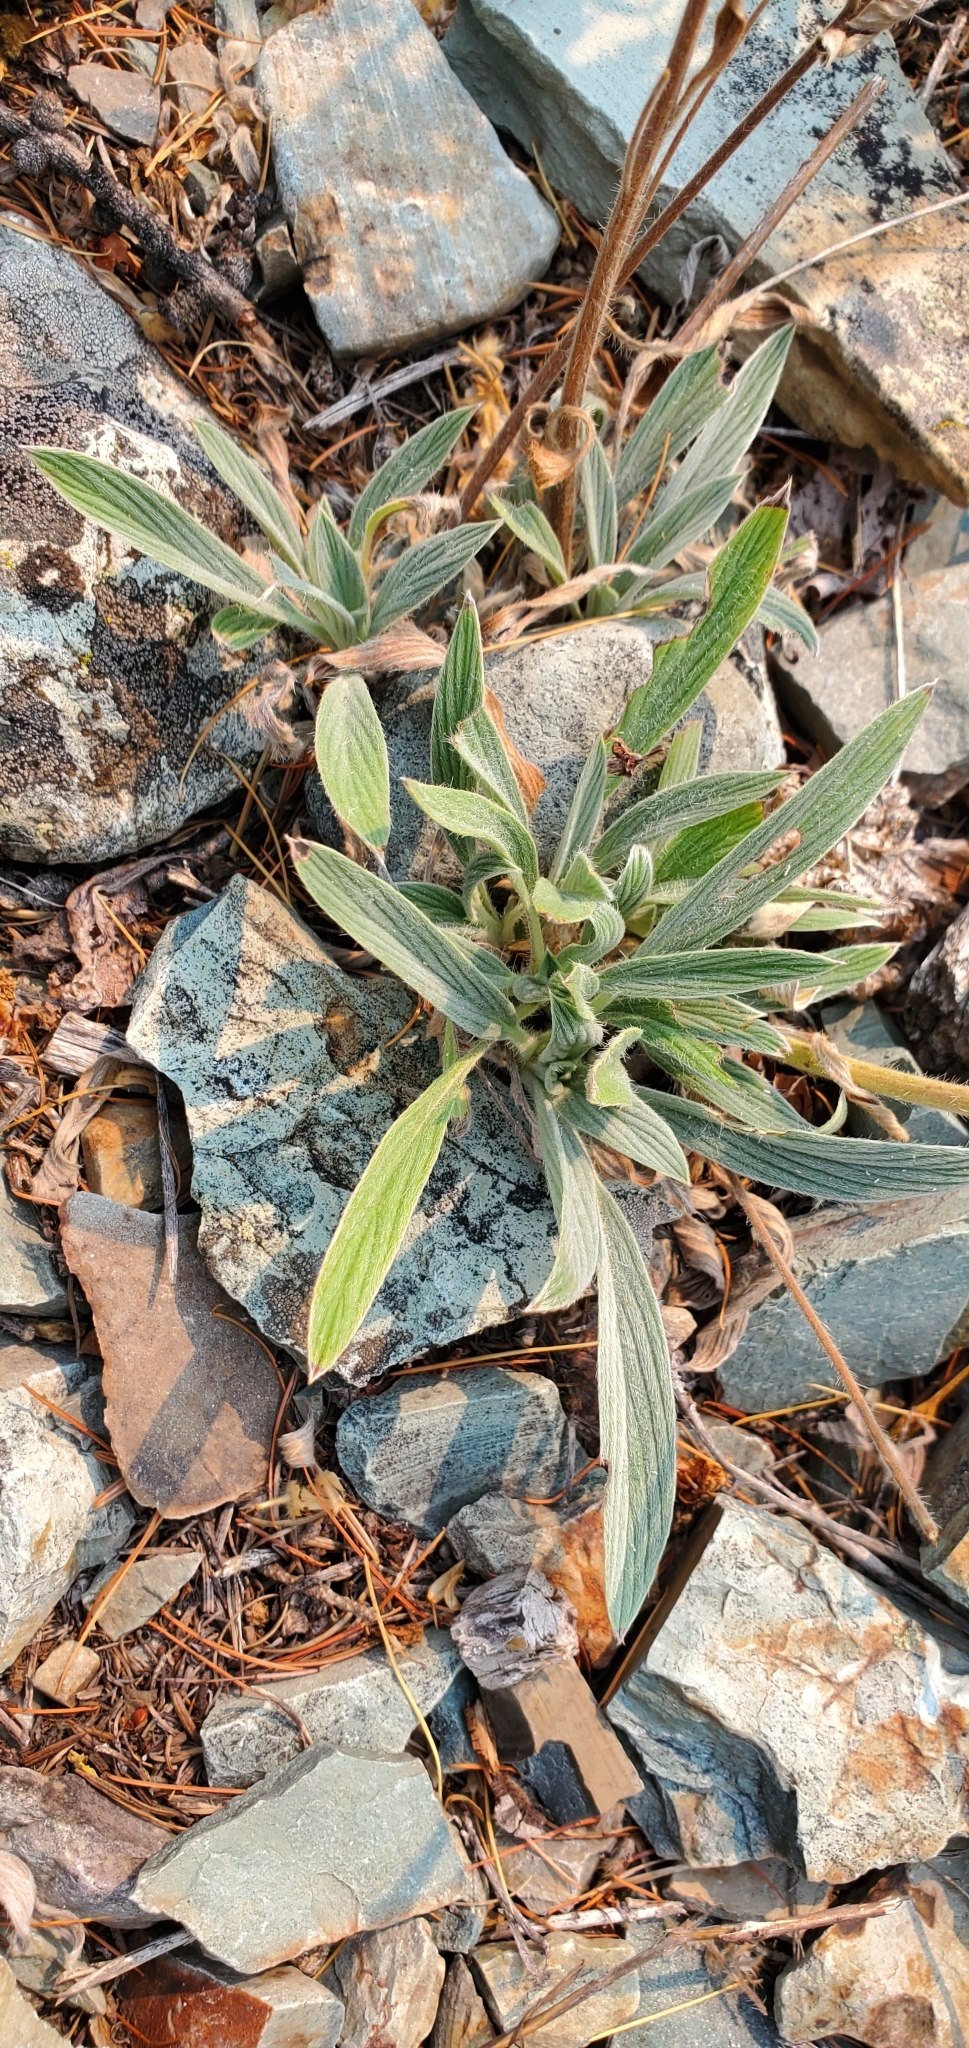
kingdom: Plantae
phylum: Tracheophyta
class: Magnoliopsida
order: Boraginales
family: Hydrophyllaceae
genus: Phacelia
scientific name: Phacelia hastata
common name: Silver-leaved phacelia
